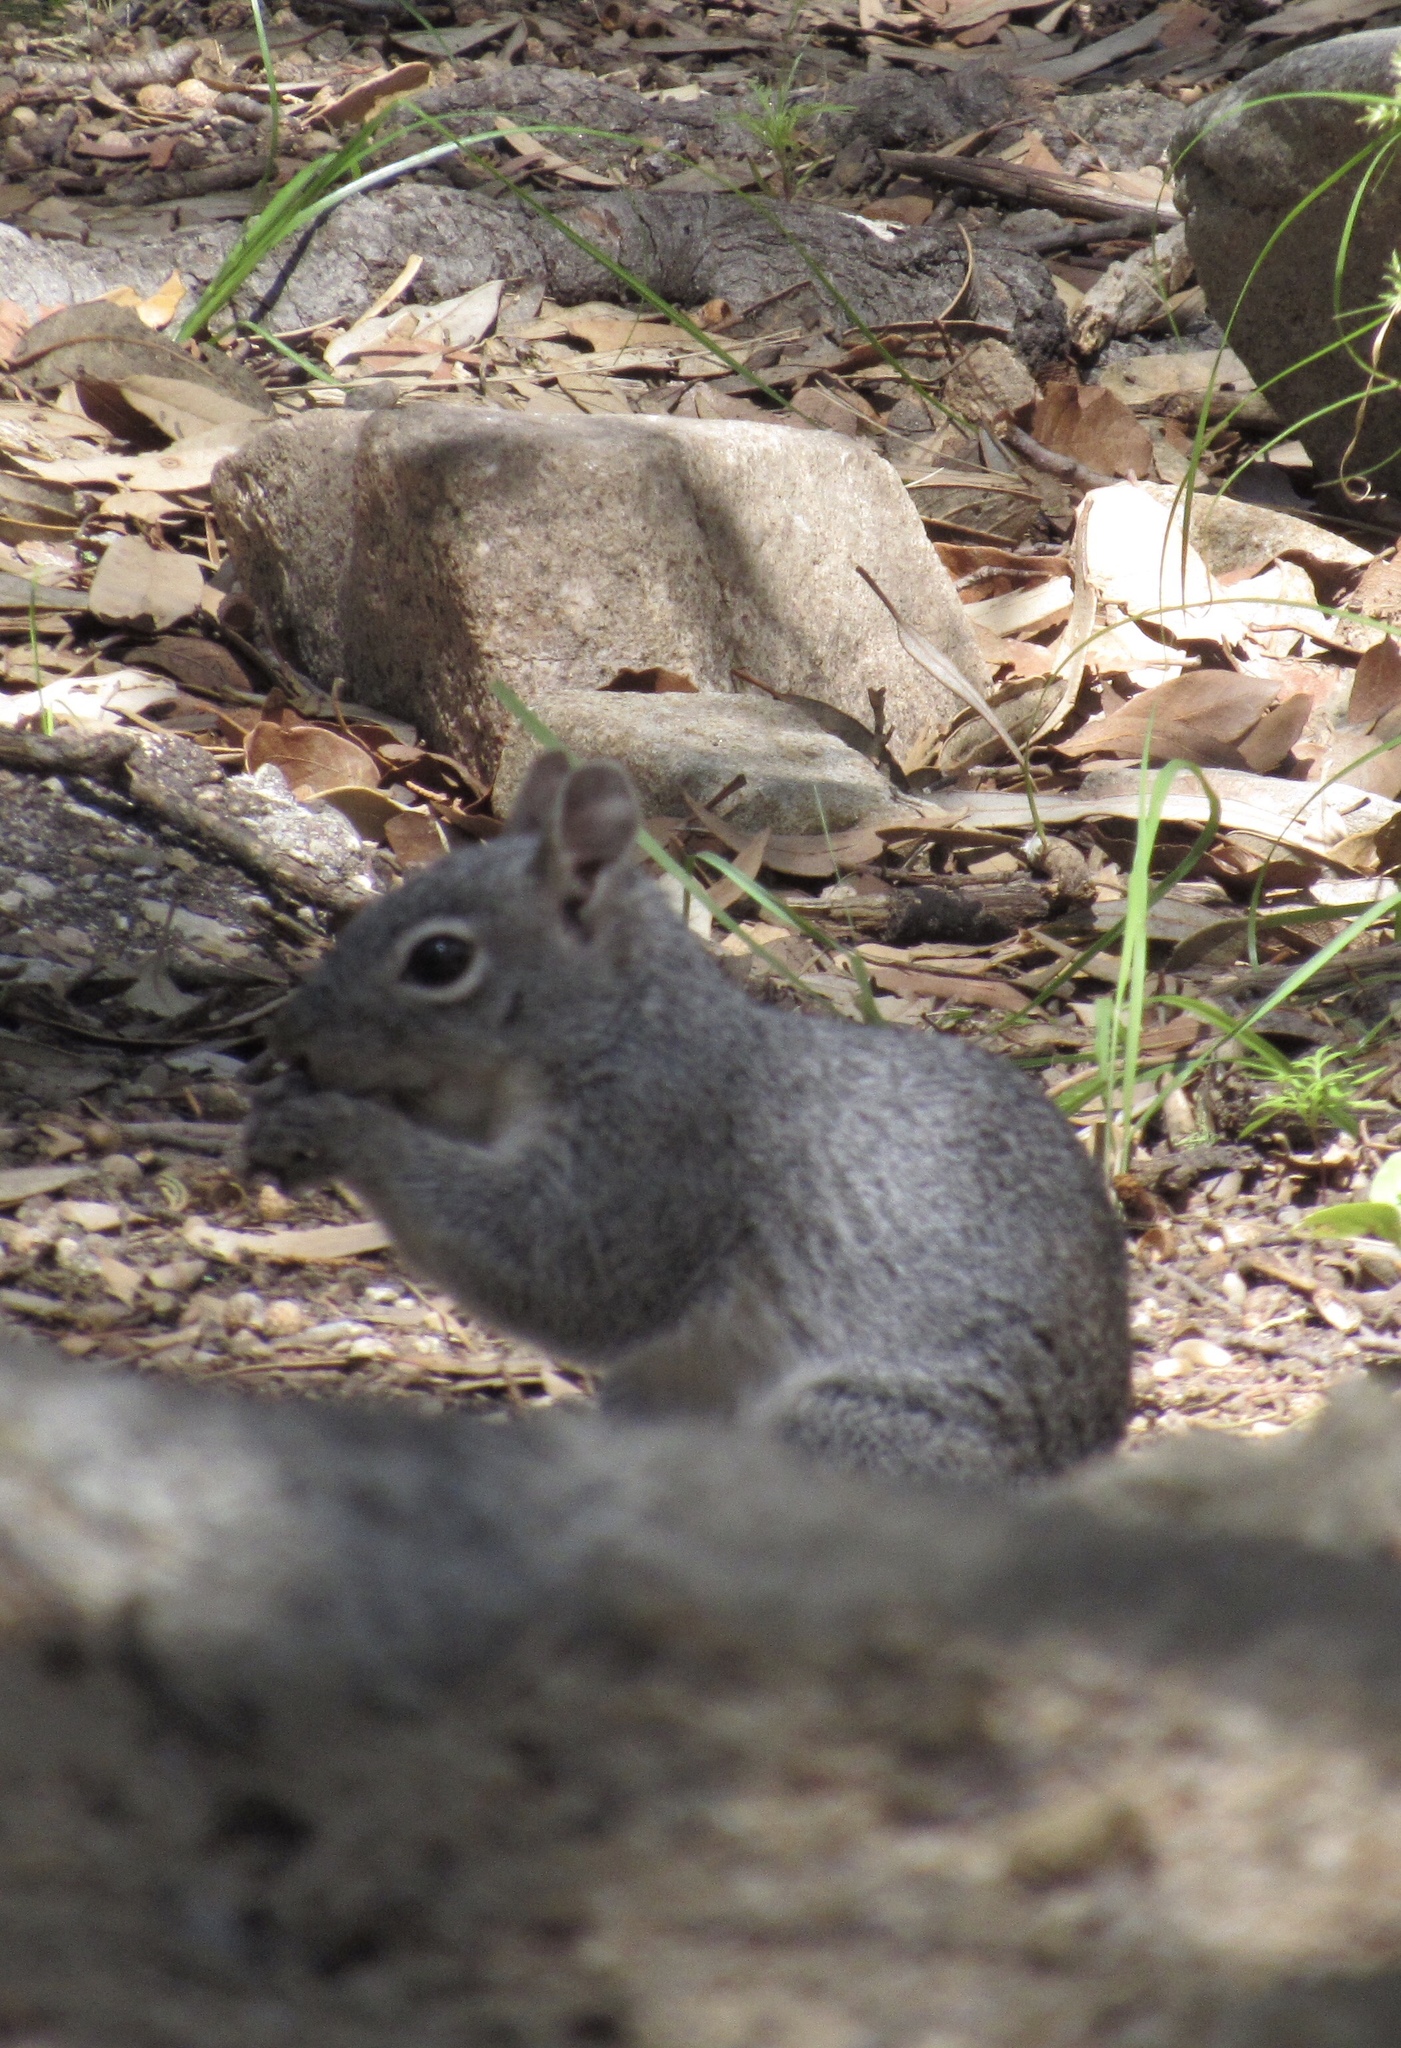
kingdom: Animalia
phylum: Chordata
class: Mammalia
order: Rodentia
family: Sciuridae
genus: Sciurus
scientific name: Sciurus arizonensis
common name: Arizona gray squirrel
